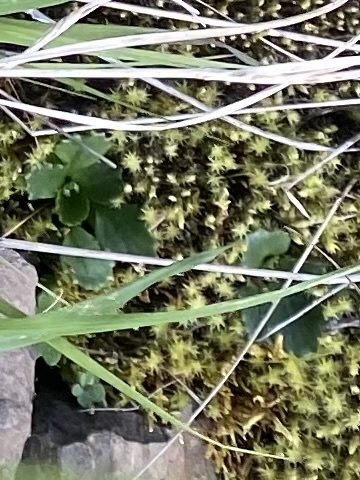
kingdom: Plantae
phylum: Tracheophyta
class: Magnoliopsida
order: Saxifragales
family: Saxifragaceae
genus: Micranthes
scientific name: Micranthes nivalis
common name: Alpine saxifrage
